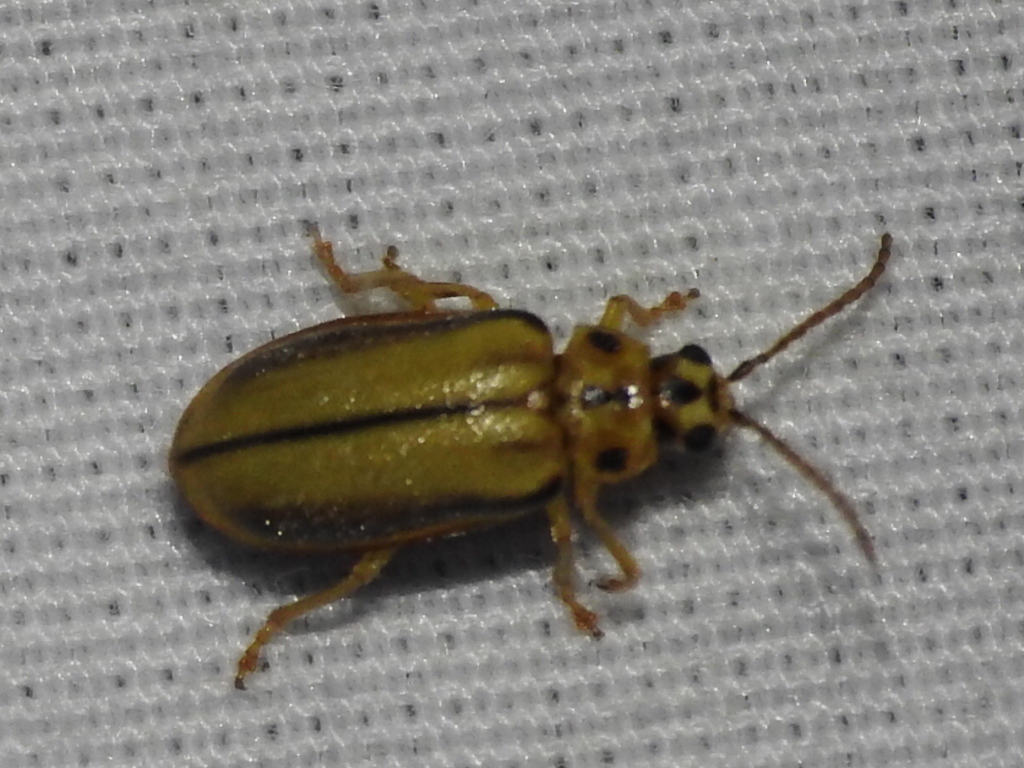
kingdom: Animalia
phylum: Arthropoda
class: Insecta
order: Coleoptera
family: Chrysomelidae
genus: Xanthogaleruca
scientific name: Xanthogaleruca luteola
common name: Elm leaf beetle
